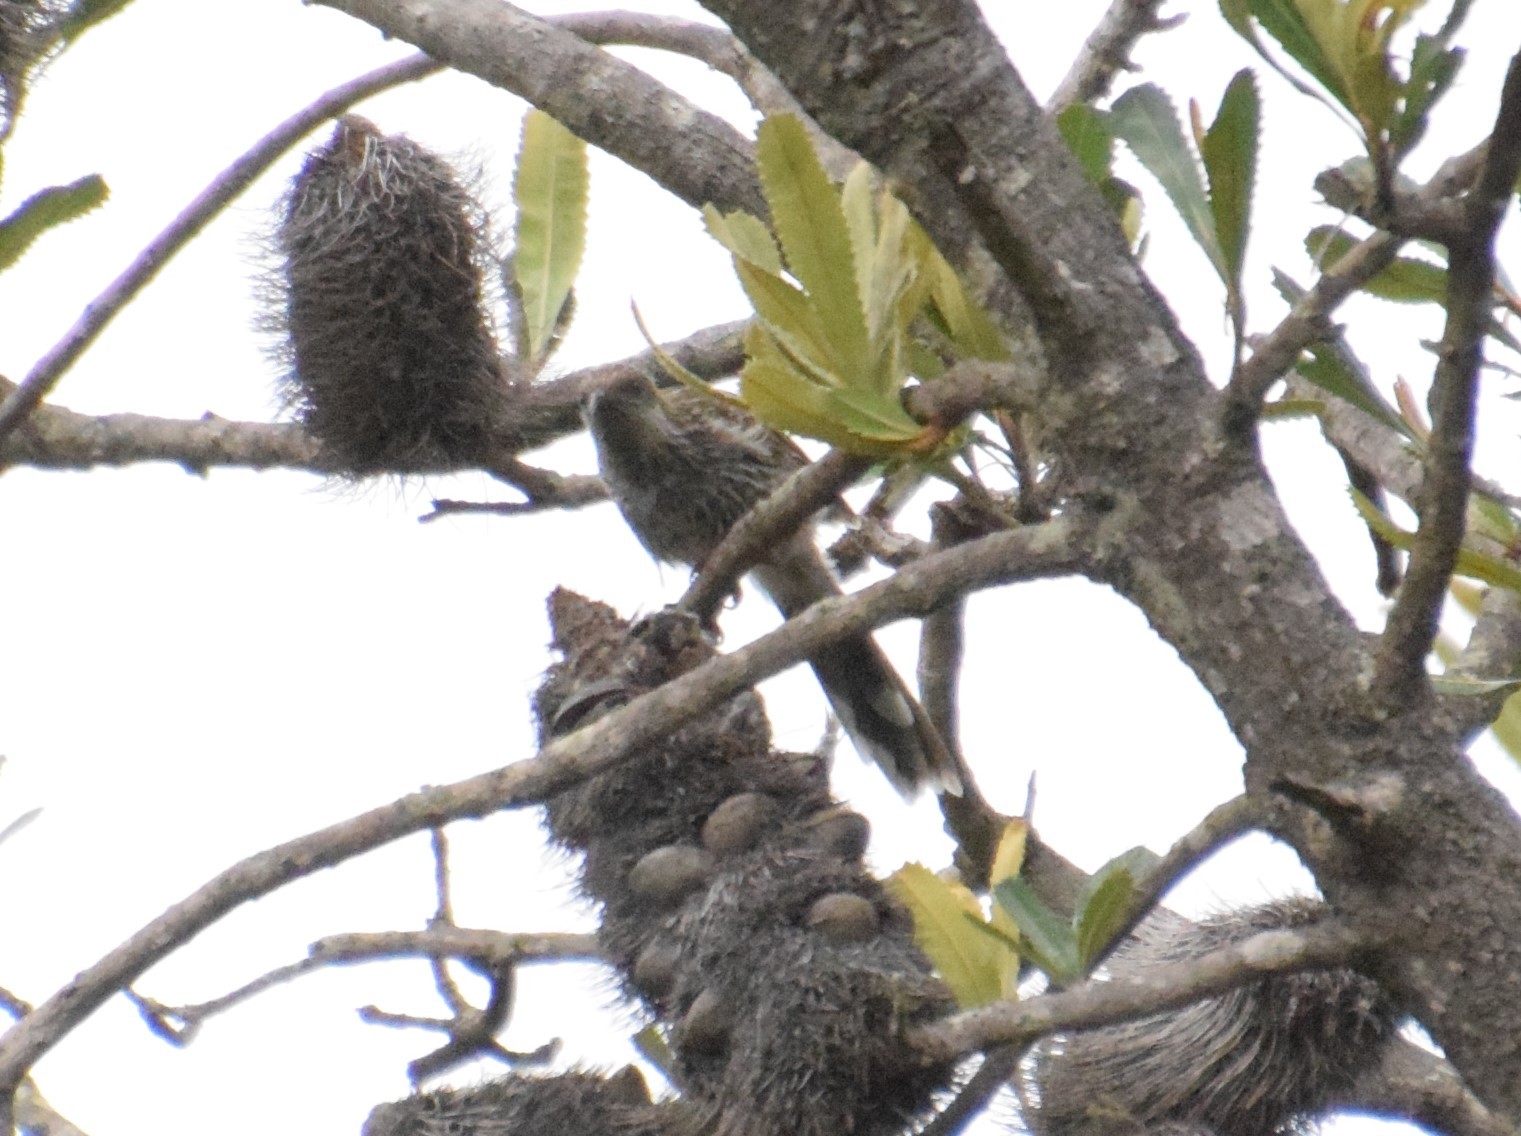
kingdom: Animalia
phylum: Chordata
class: Aves
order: Passeriformes
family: Meliphagidae
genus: Anthochaera
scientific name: Anthochaera chrysoptera
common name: Little wattlebird
